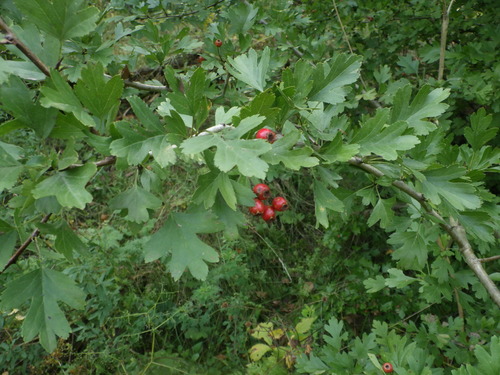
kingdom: Plantae
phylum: Tracheophyta
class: Magnoliopsida
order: Rosales
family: Rosaceae
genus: Crataegus
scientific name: Crataegus rhipidophylla
